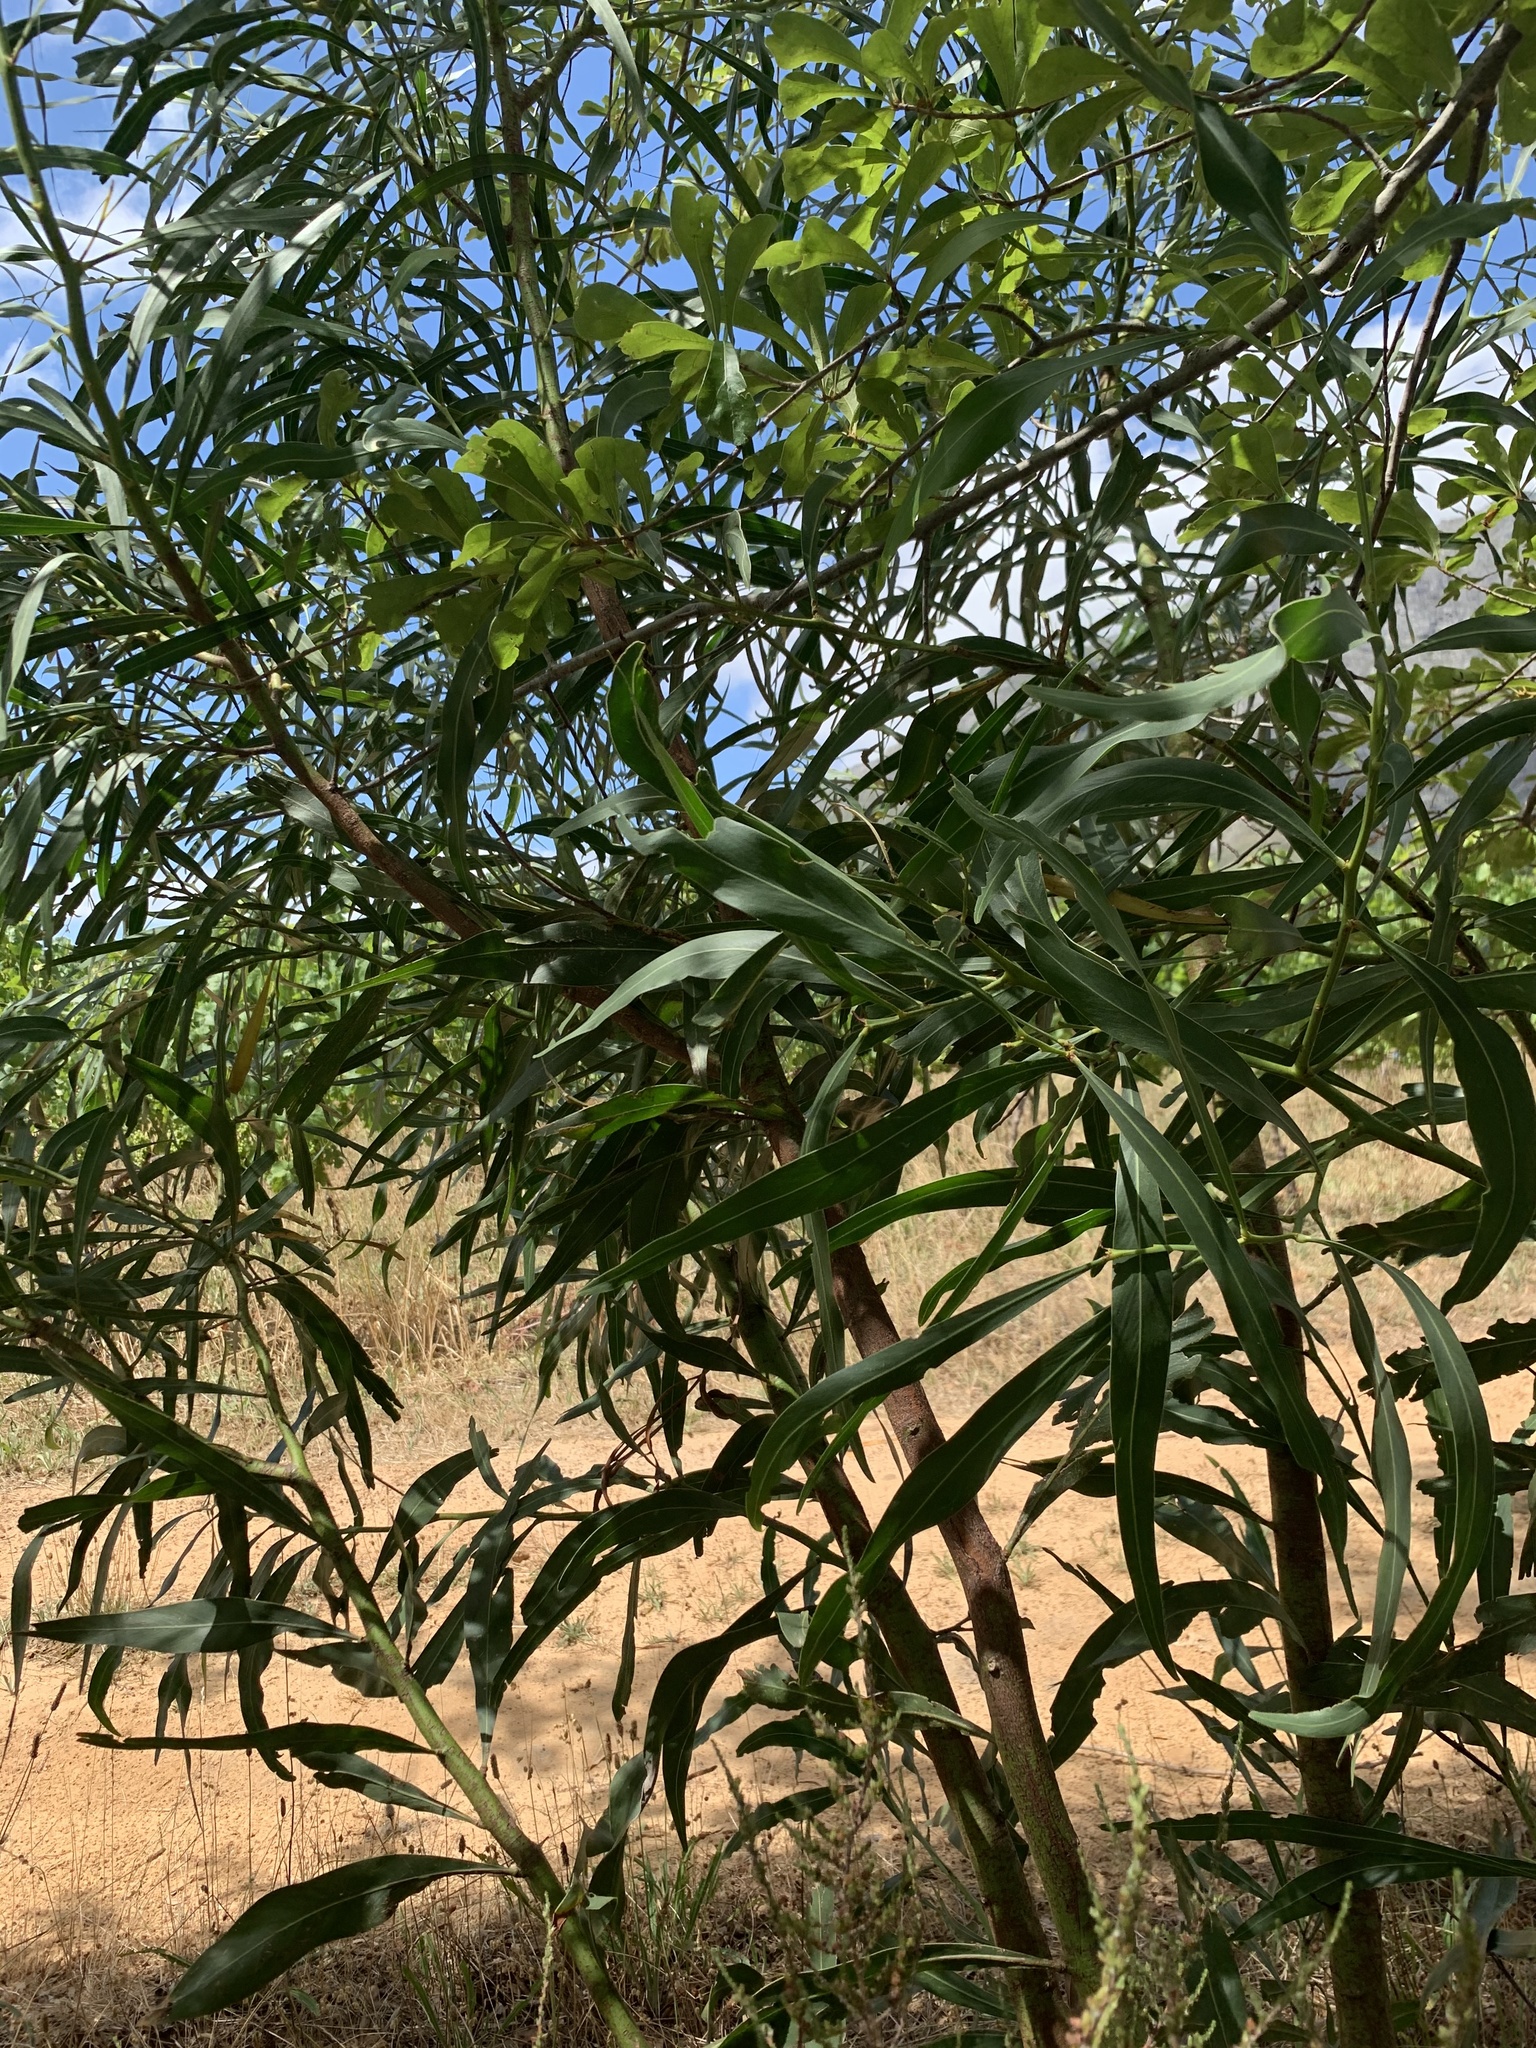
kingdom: Plantae
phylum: Tracheophyta
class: Magnoliopsida
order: Fabales
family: Fabaceae
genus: Acacia
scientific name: Acacia saligna
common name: Orange wattle
